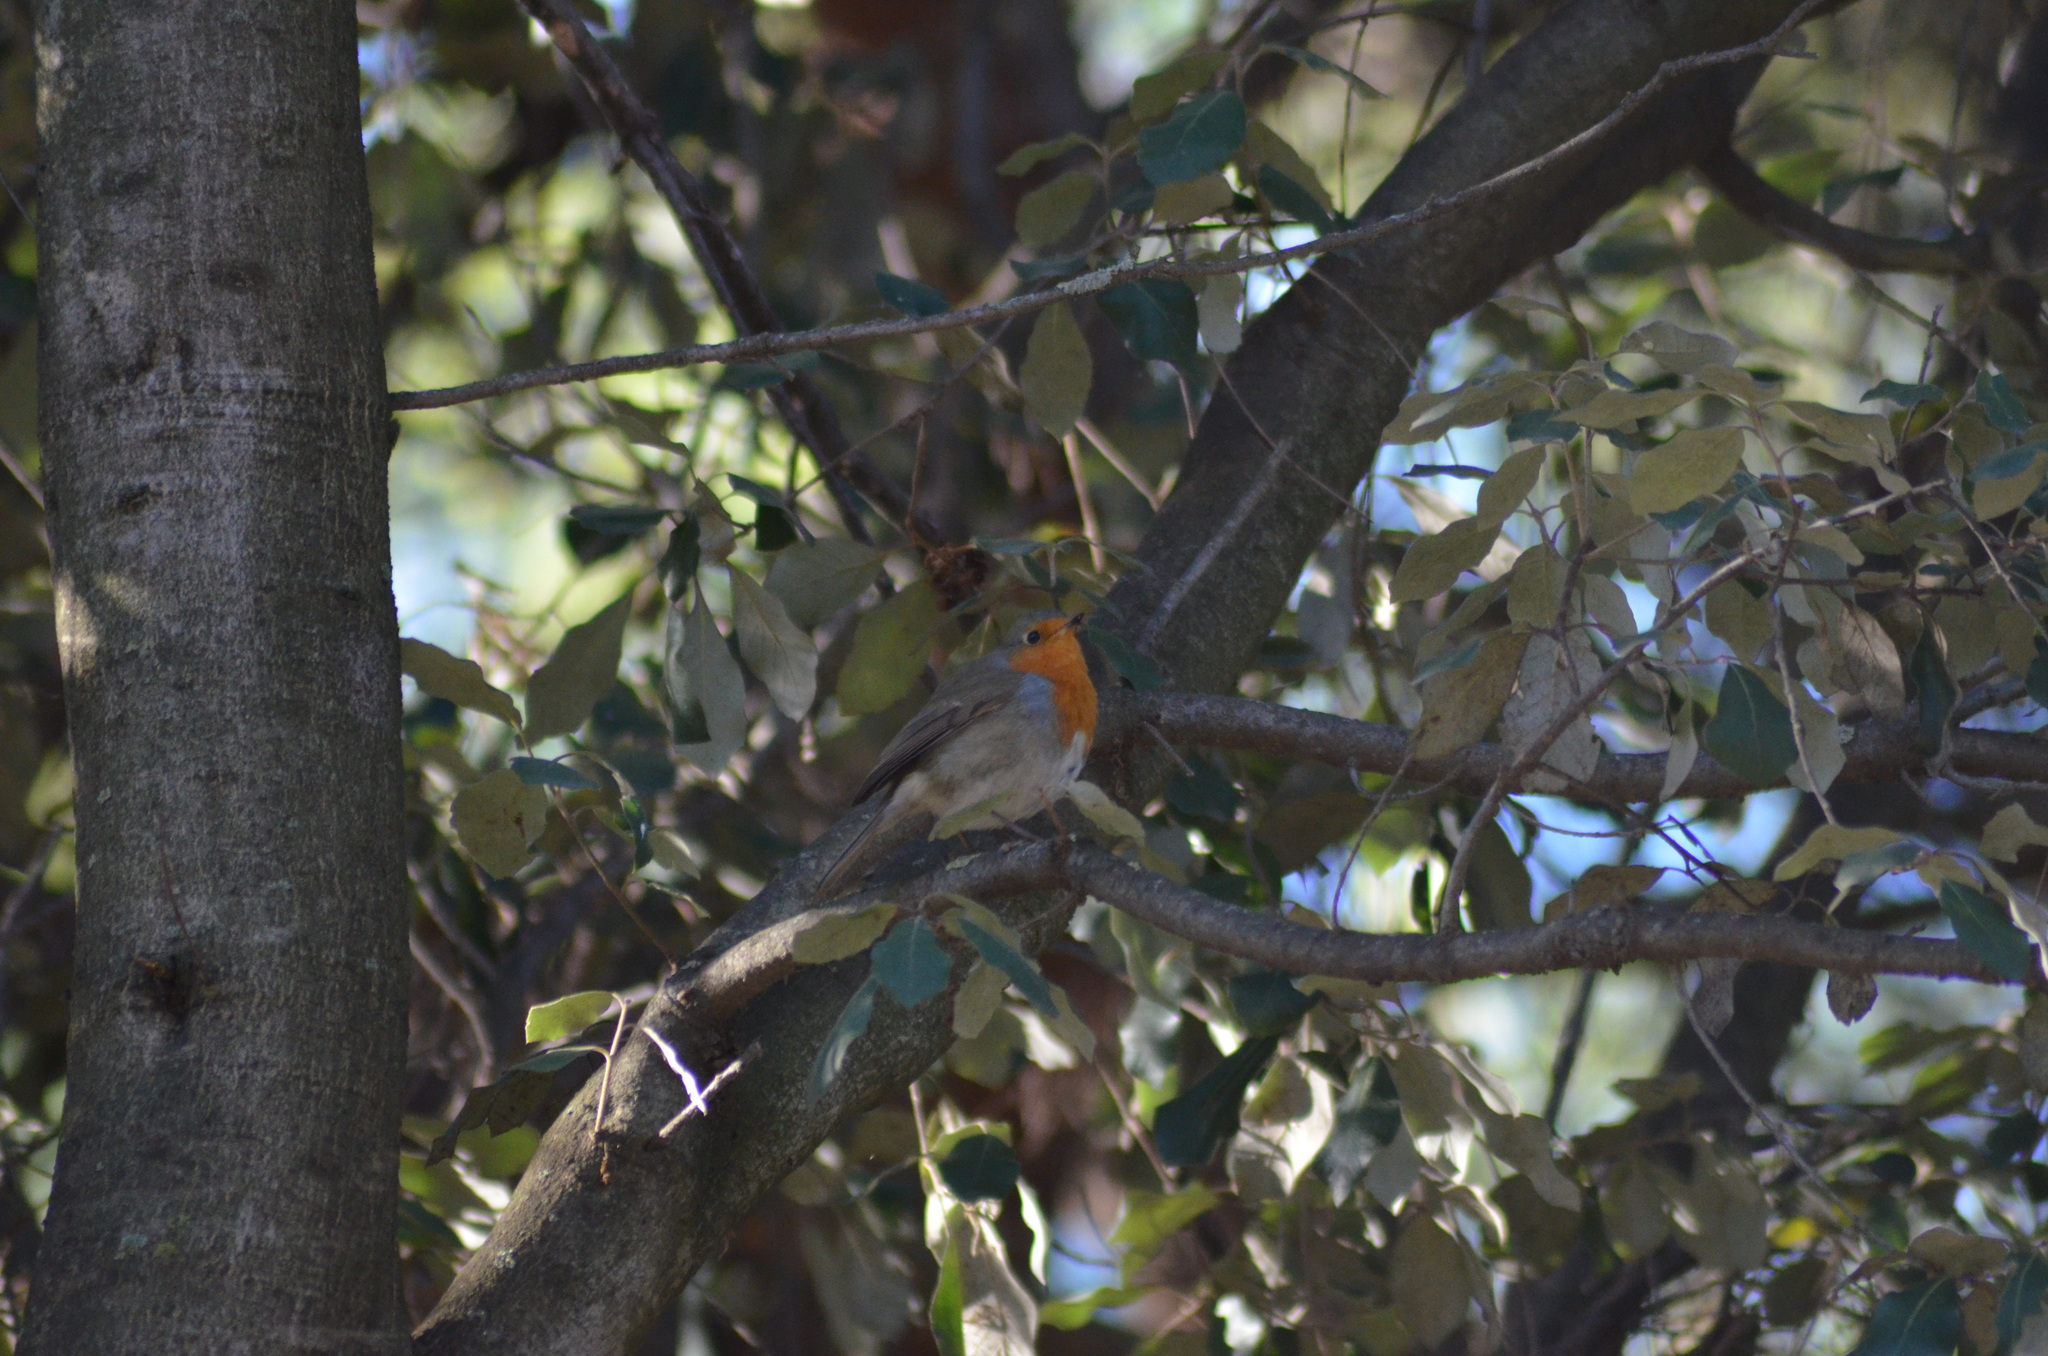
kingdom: Animalia
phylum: Chordata
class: Aves
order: Passeriformes
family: Muscicapidae
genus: Erithacus
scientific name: Erithacus rubecula
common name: European robin
